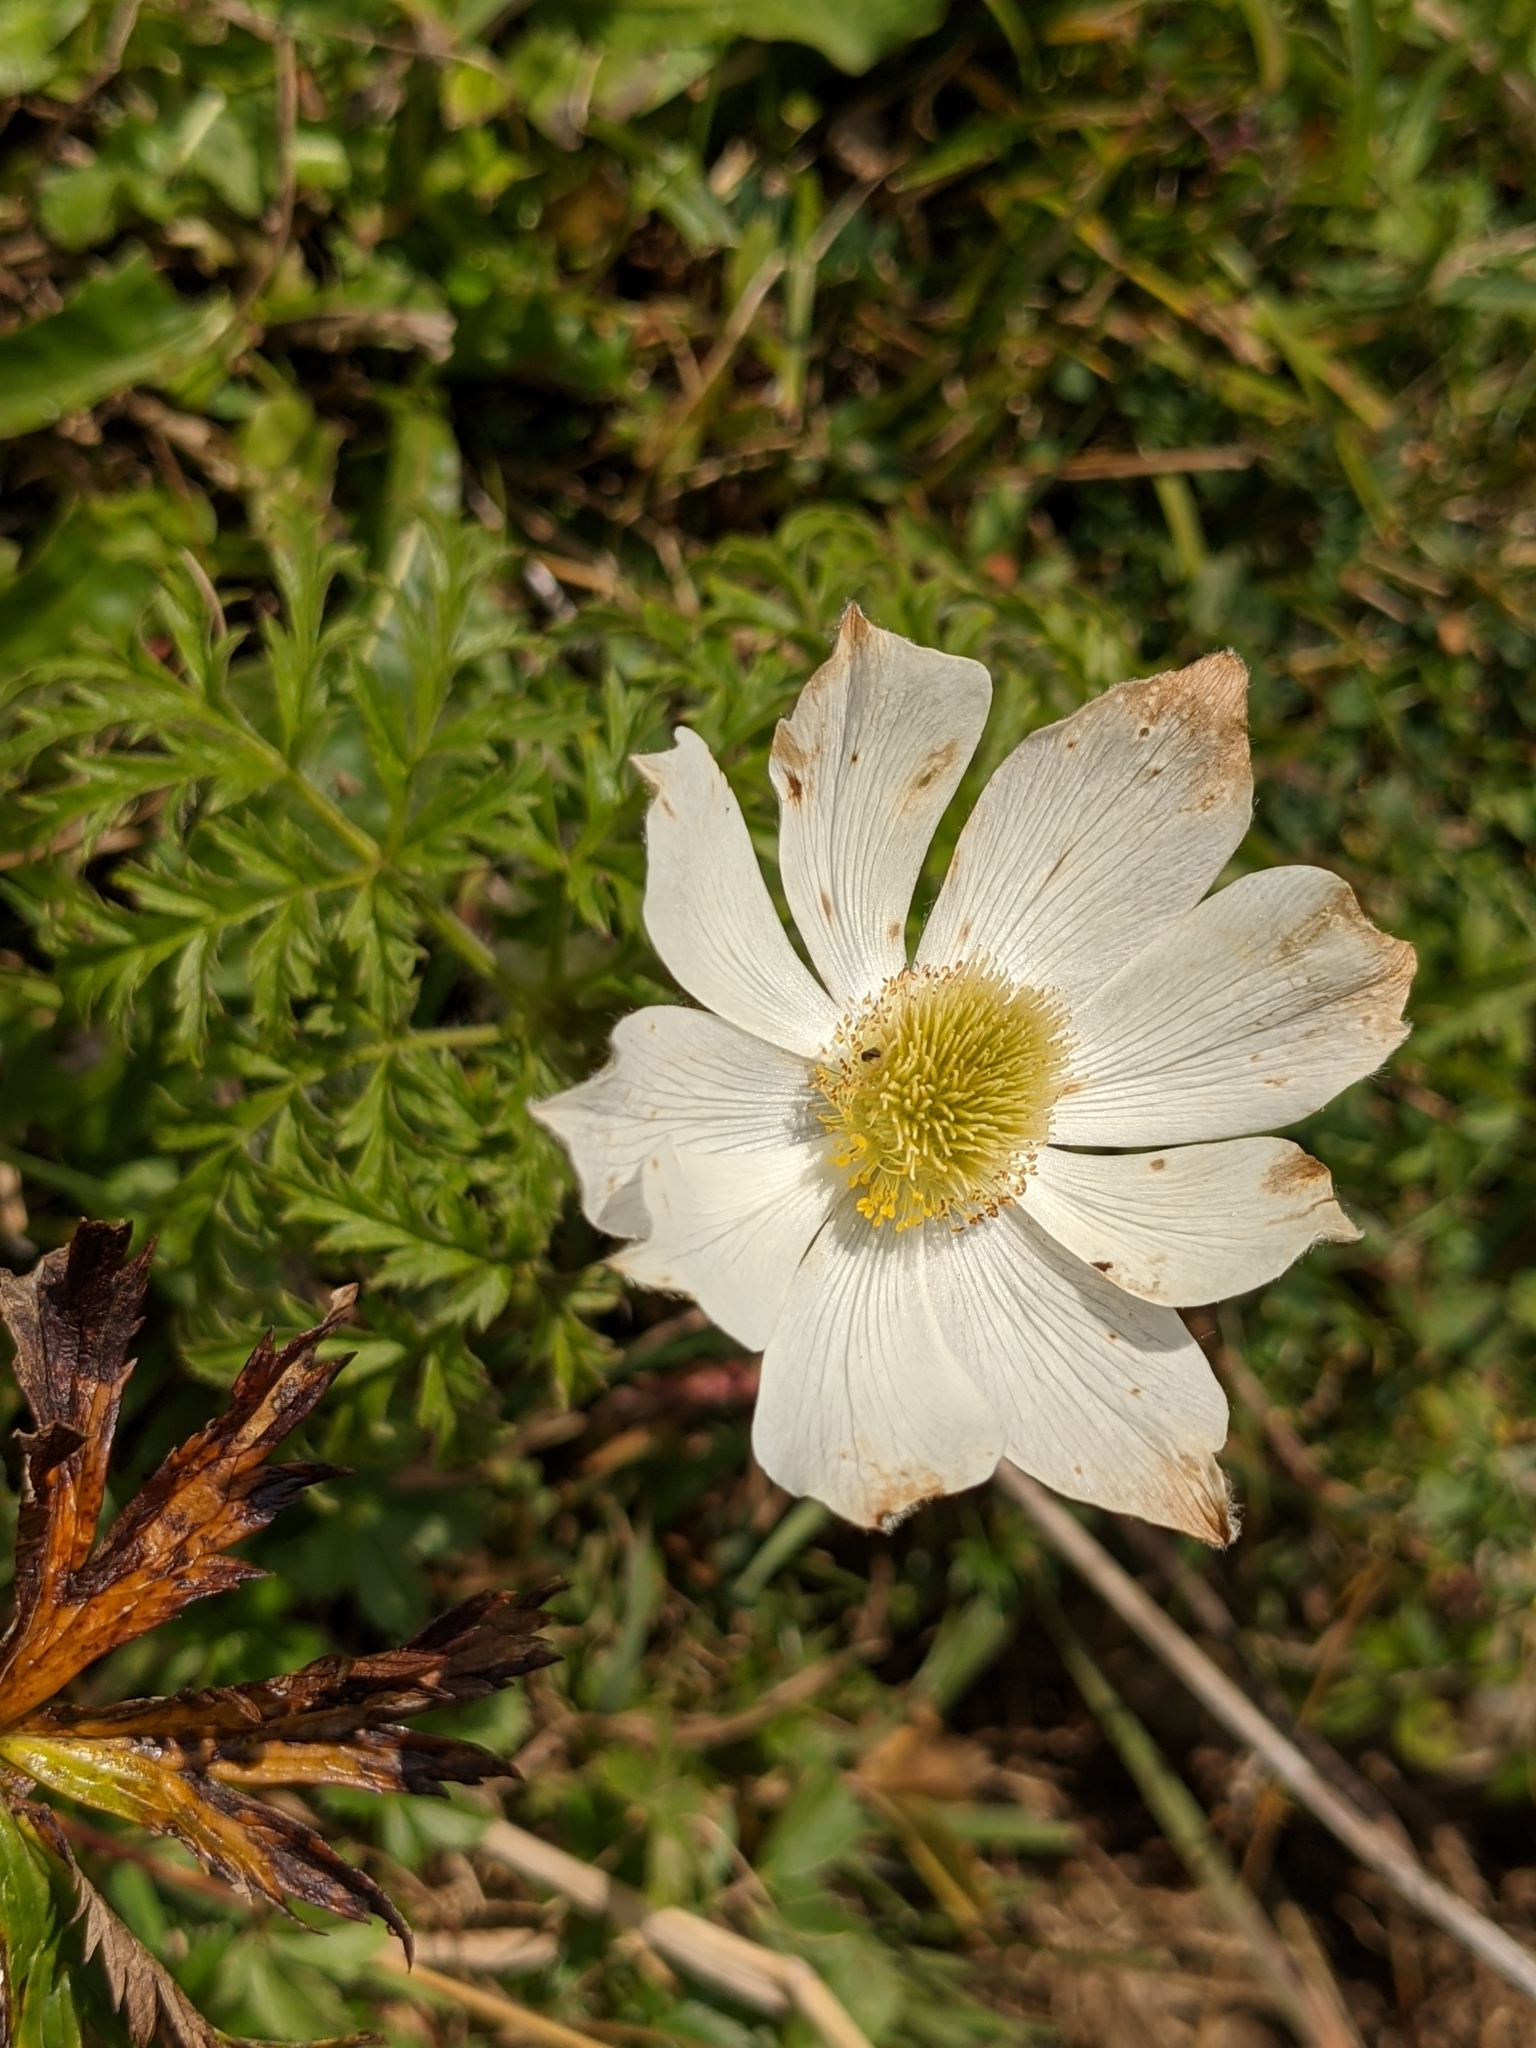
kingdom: Plantae
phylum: Tracheophyta
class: Magnoliopsida
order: Ranunculales
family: Ranunculaceae
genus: Pulsatilla
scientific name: Pulsatilla alpina
